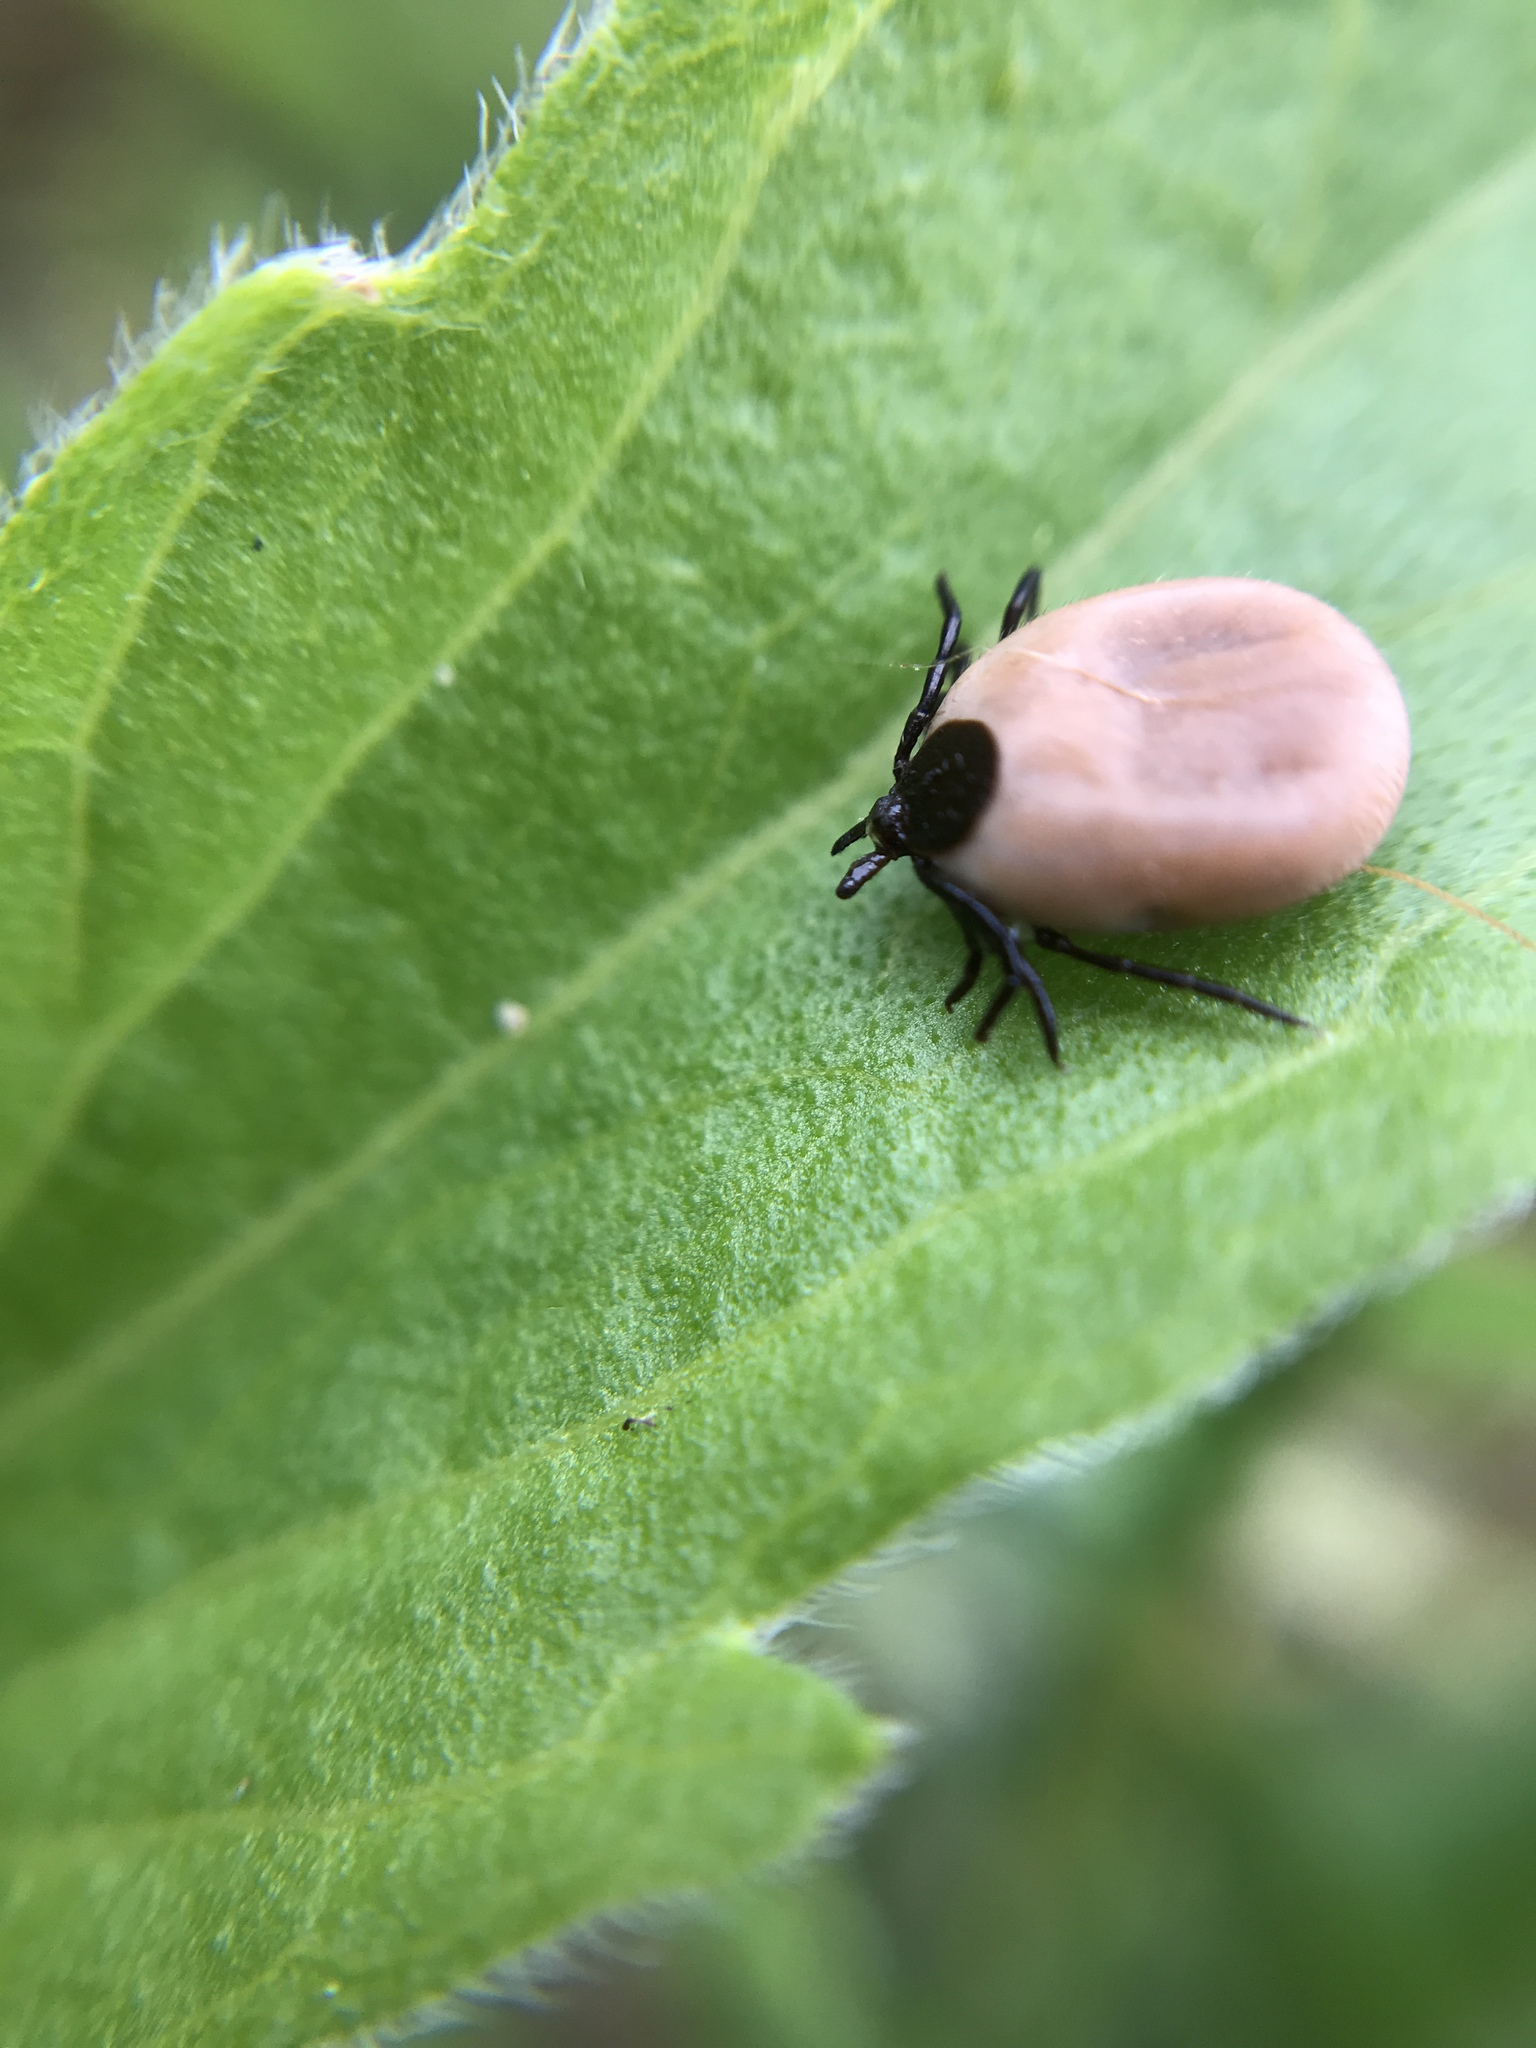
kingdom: Animalia
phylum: Arthropoda
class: Arachnida
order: Ixodida
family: Ixodidae
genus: Ixodes
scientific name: Ixodes ricinus
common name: Castor bean tick
